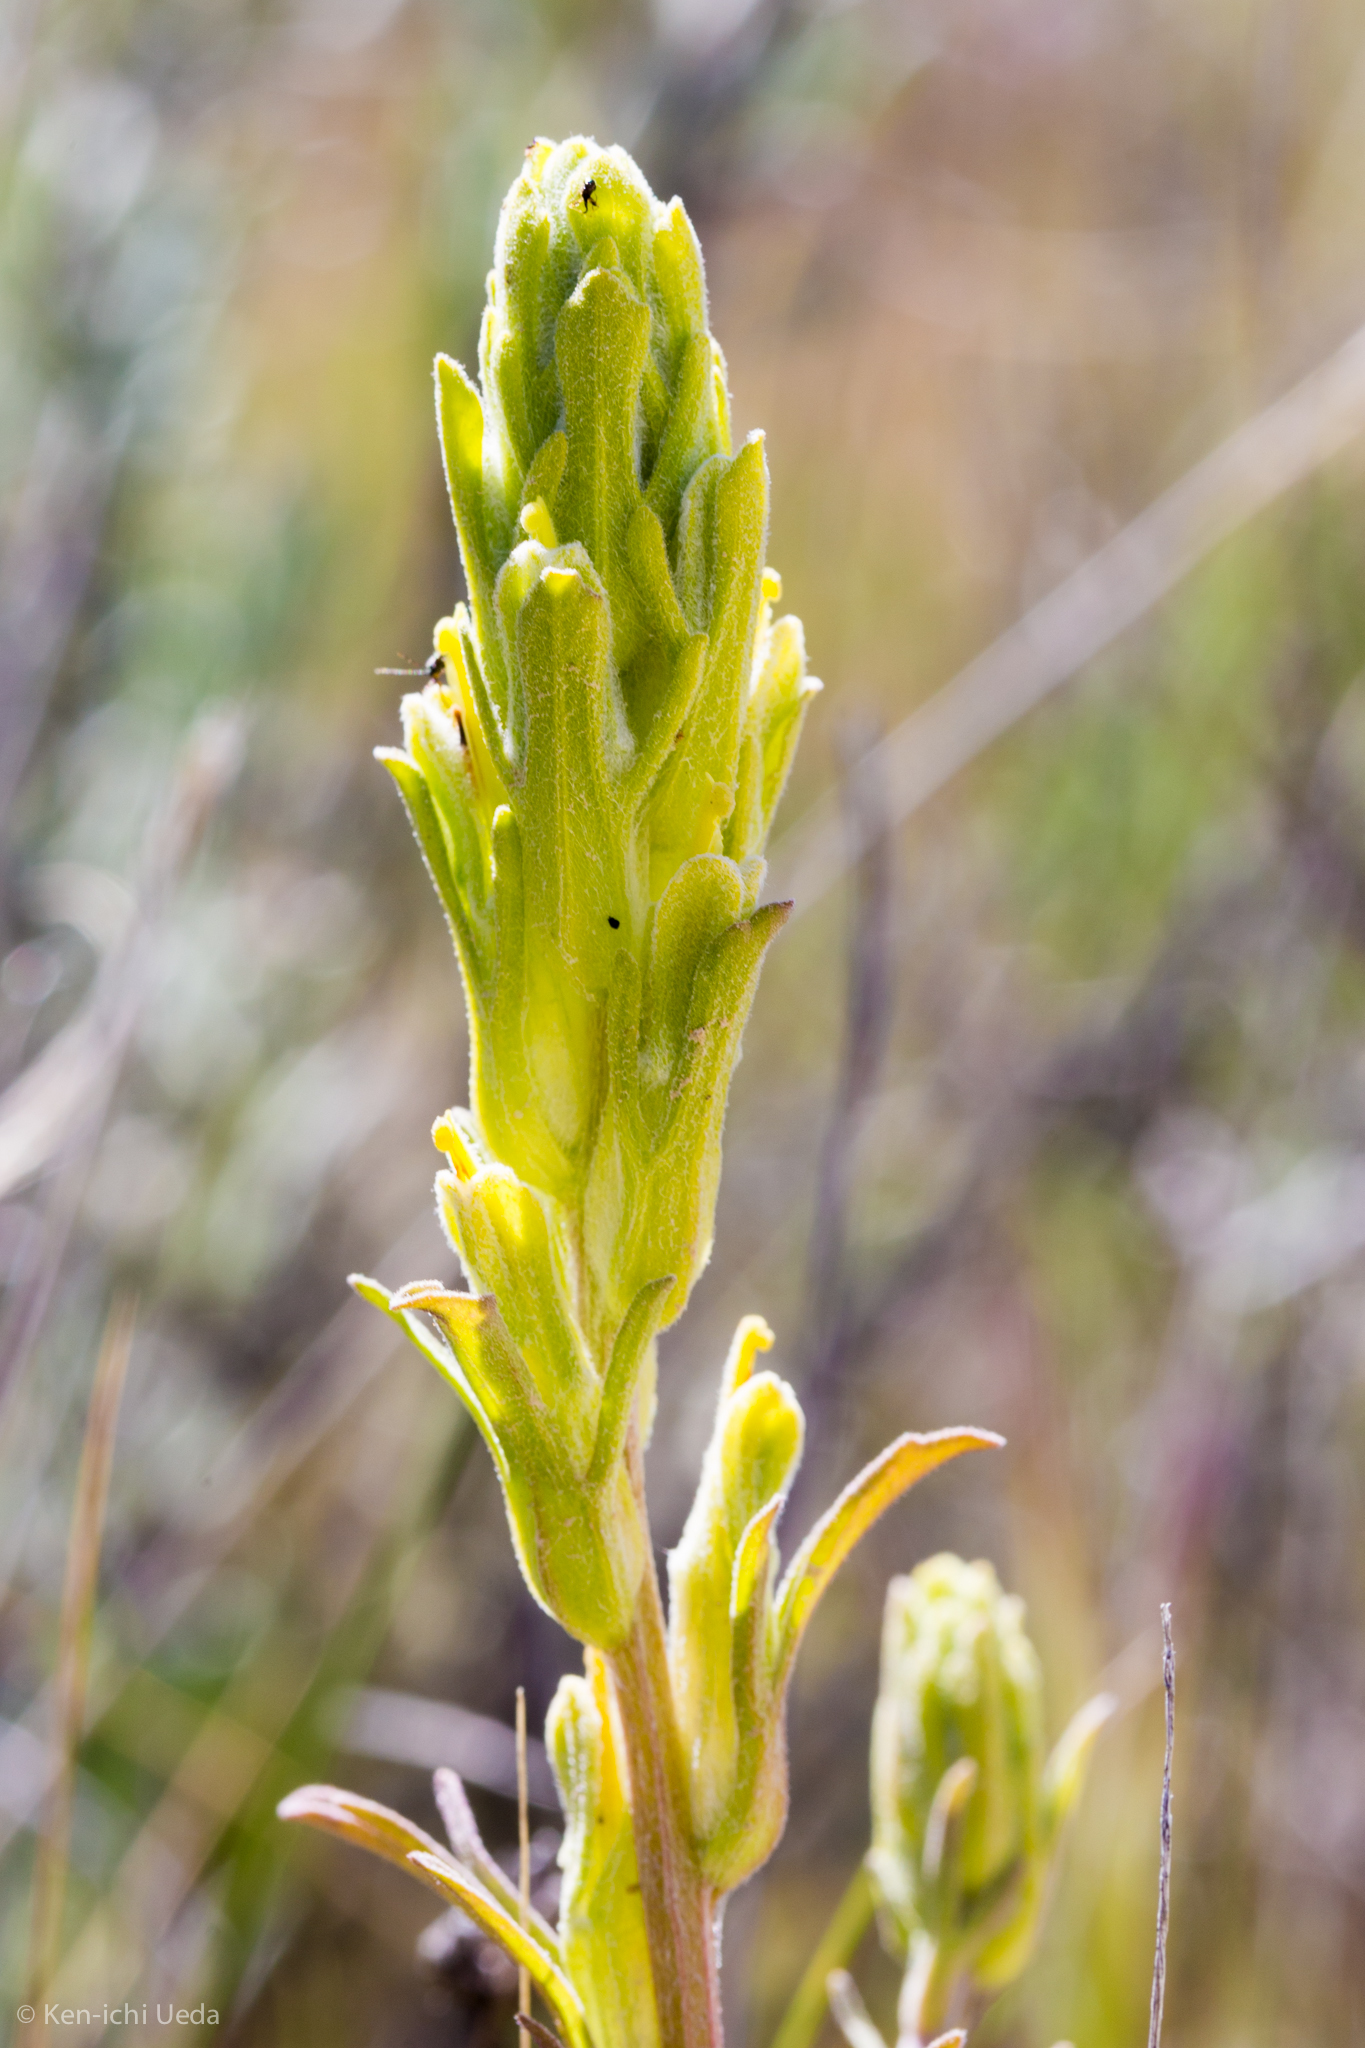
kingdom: Plantae
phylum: Tracheophyta
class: Magnoliopsida
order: Lamiales
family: Orobanchaceae
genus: Castilleja
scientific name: Castilleja plagiotoma
